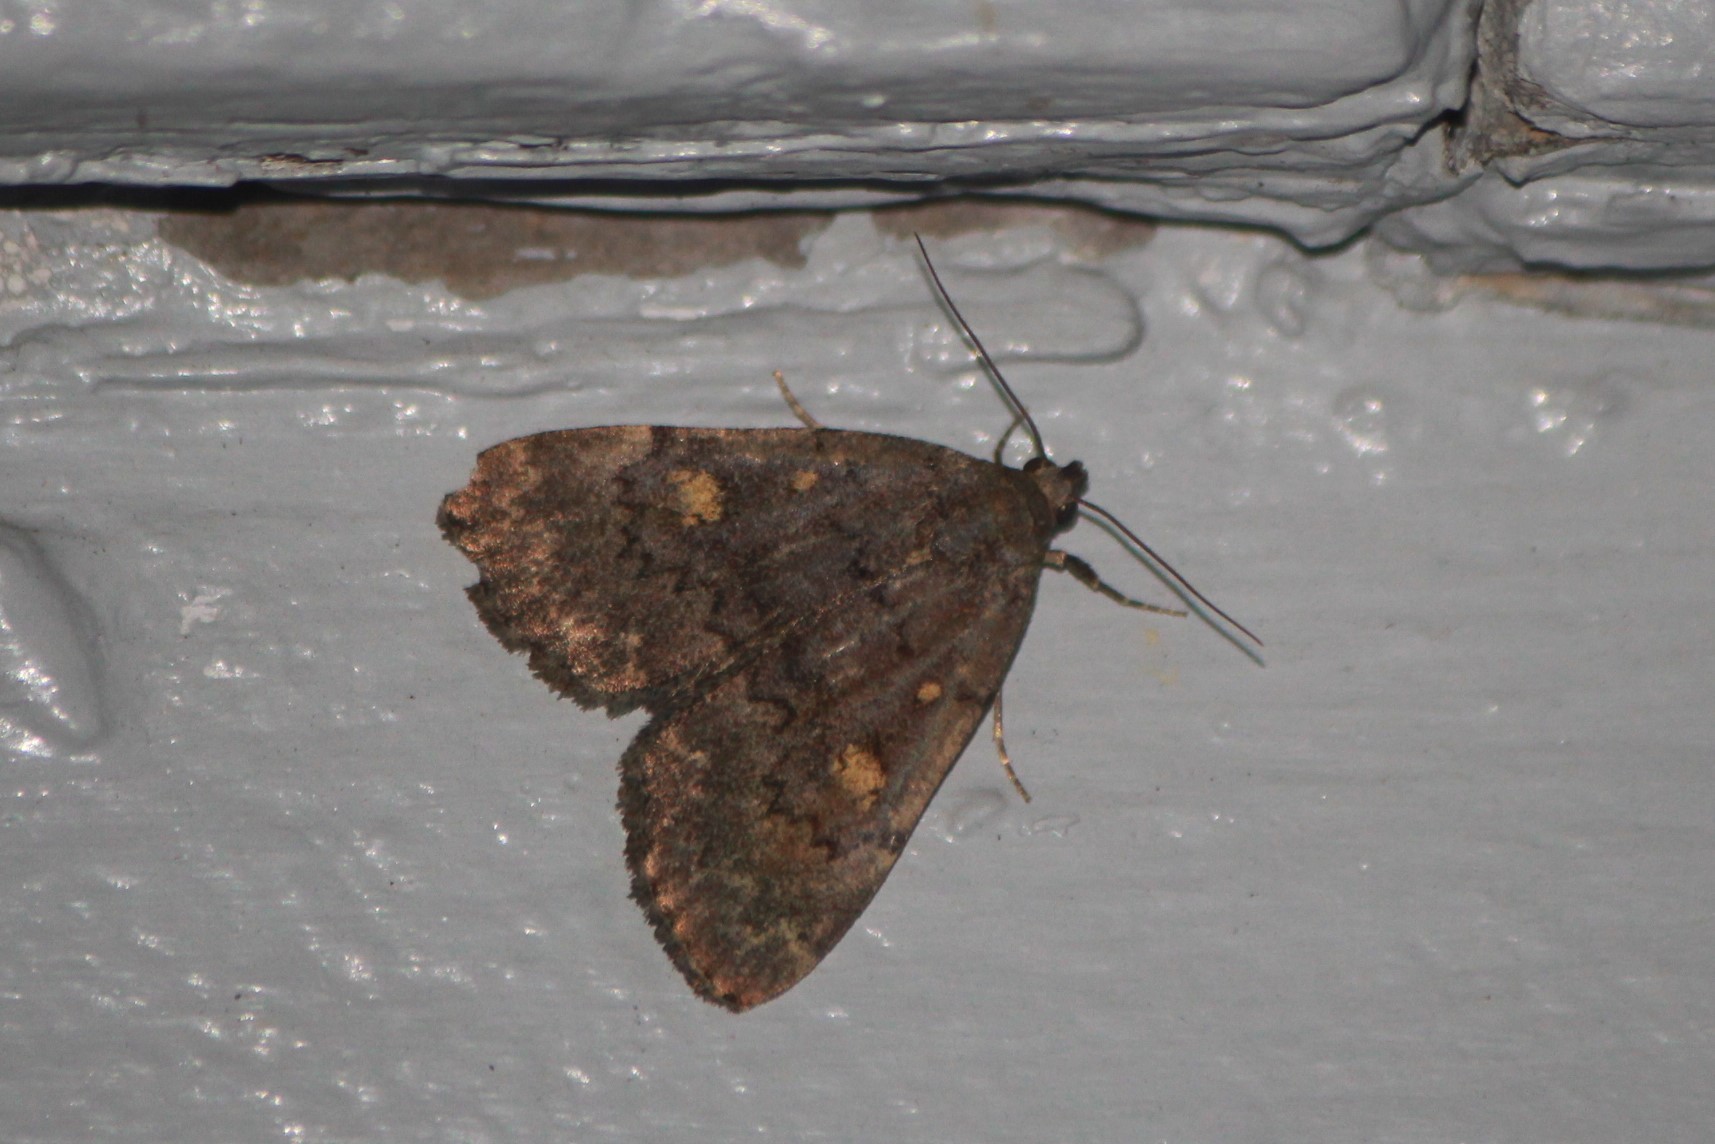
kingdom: Animalia
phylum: Arthropoda
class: Insecta
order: Lepidoptera
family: Erebidae
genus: Idia
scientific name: Idia aemula
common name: Common idia moth
